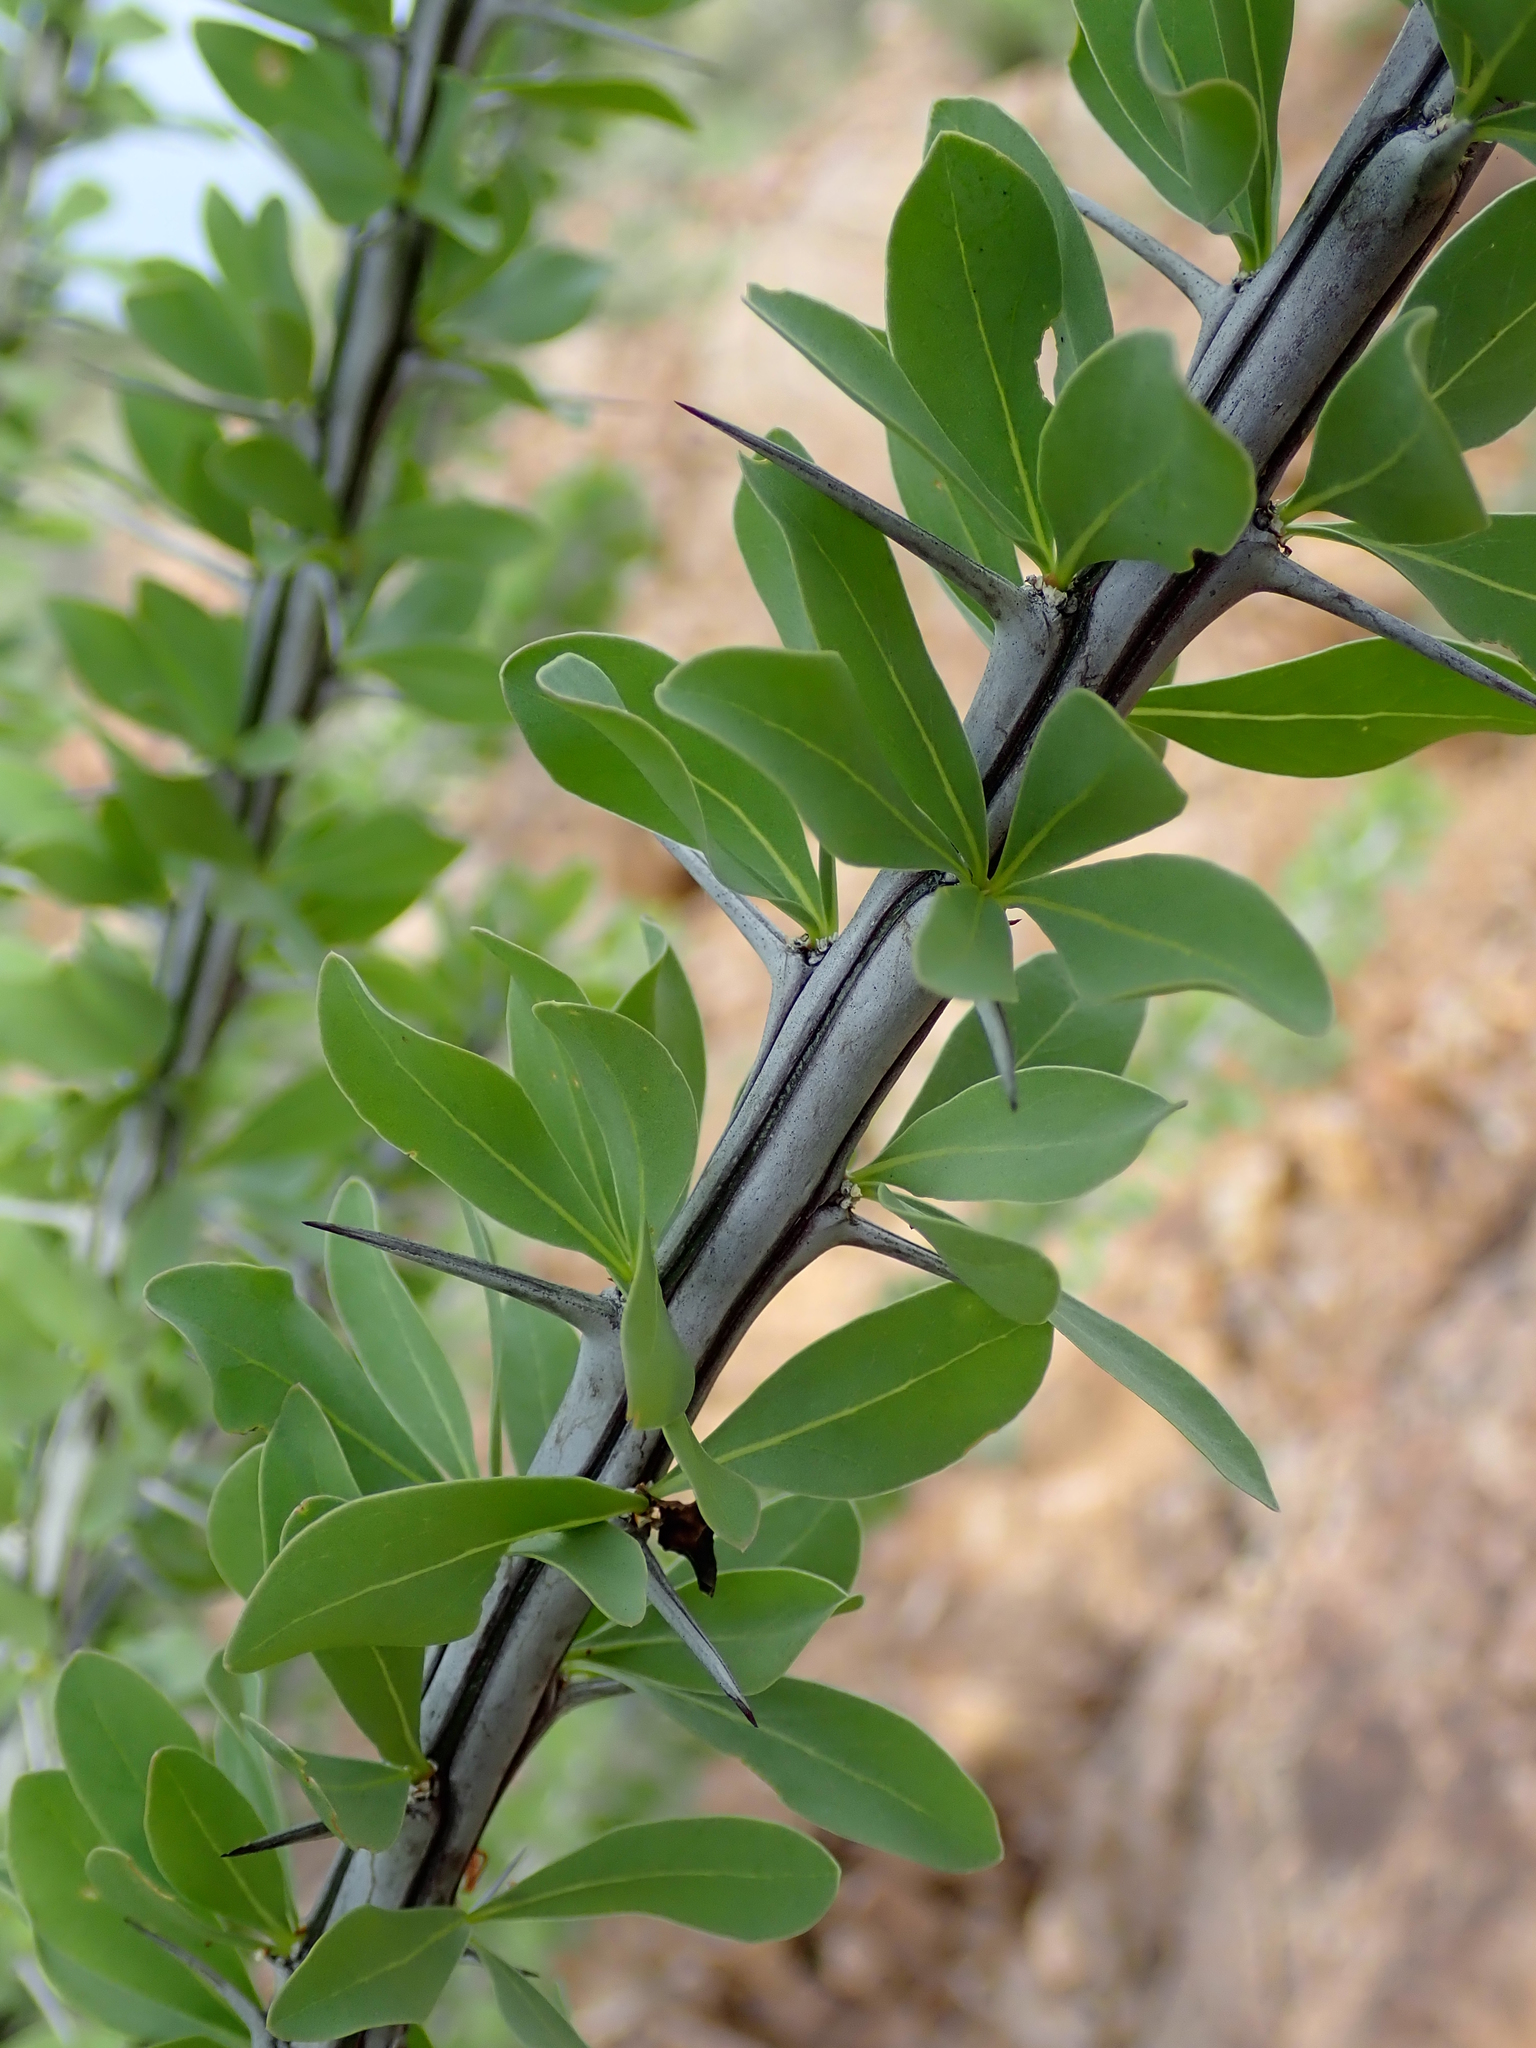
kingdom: Plantae
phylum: Tracheophyta
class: Magnoliopsida
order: Ericales
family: Fouquieriaceae
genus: Fouquieria
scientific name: Fouquieria splendens
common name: Vine-cactus
